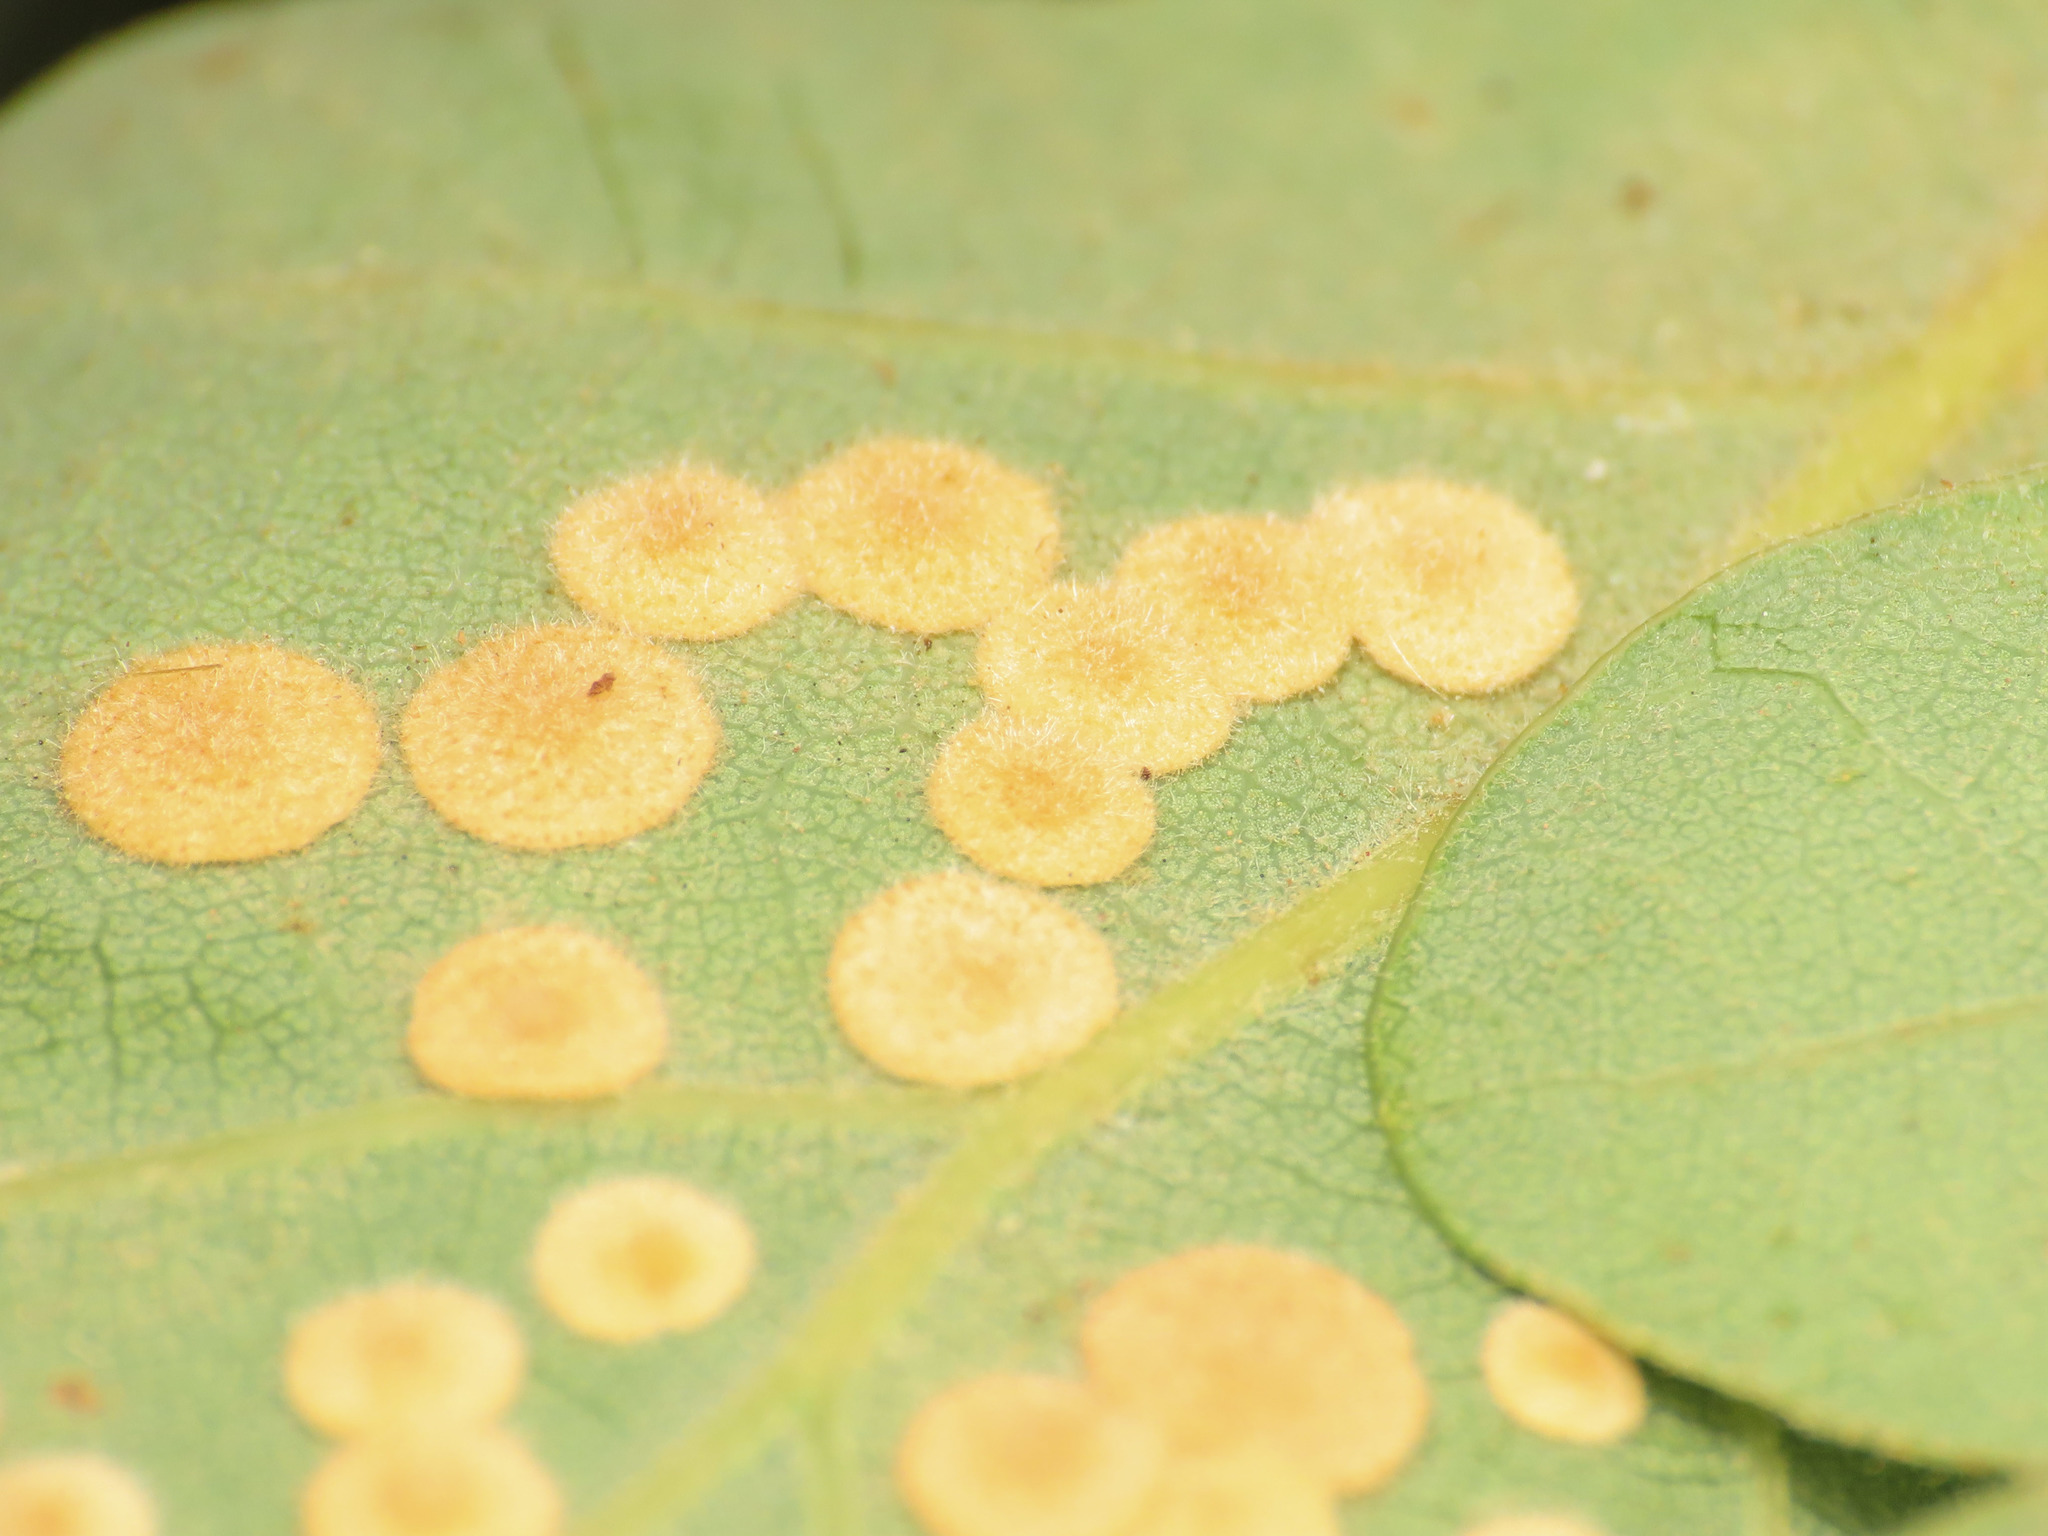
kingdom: Animalia
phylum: Arthropoda
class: Insecta
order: Hymenoptera
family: Cynipidae
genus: Neuroterus
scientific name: Neuroterus quercusbaccarum
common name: Common spangle gall
